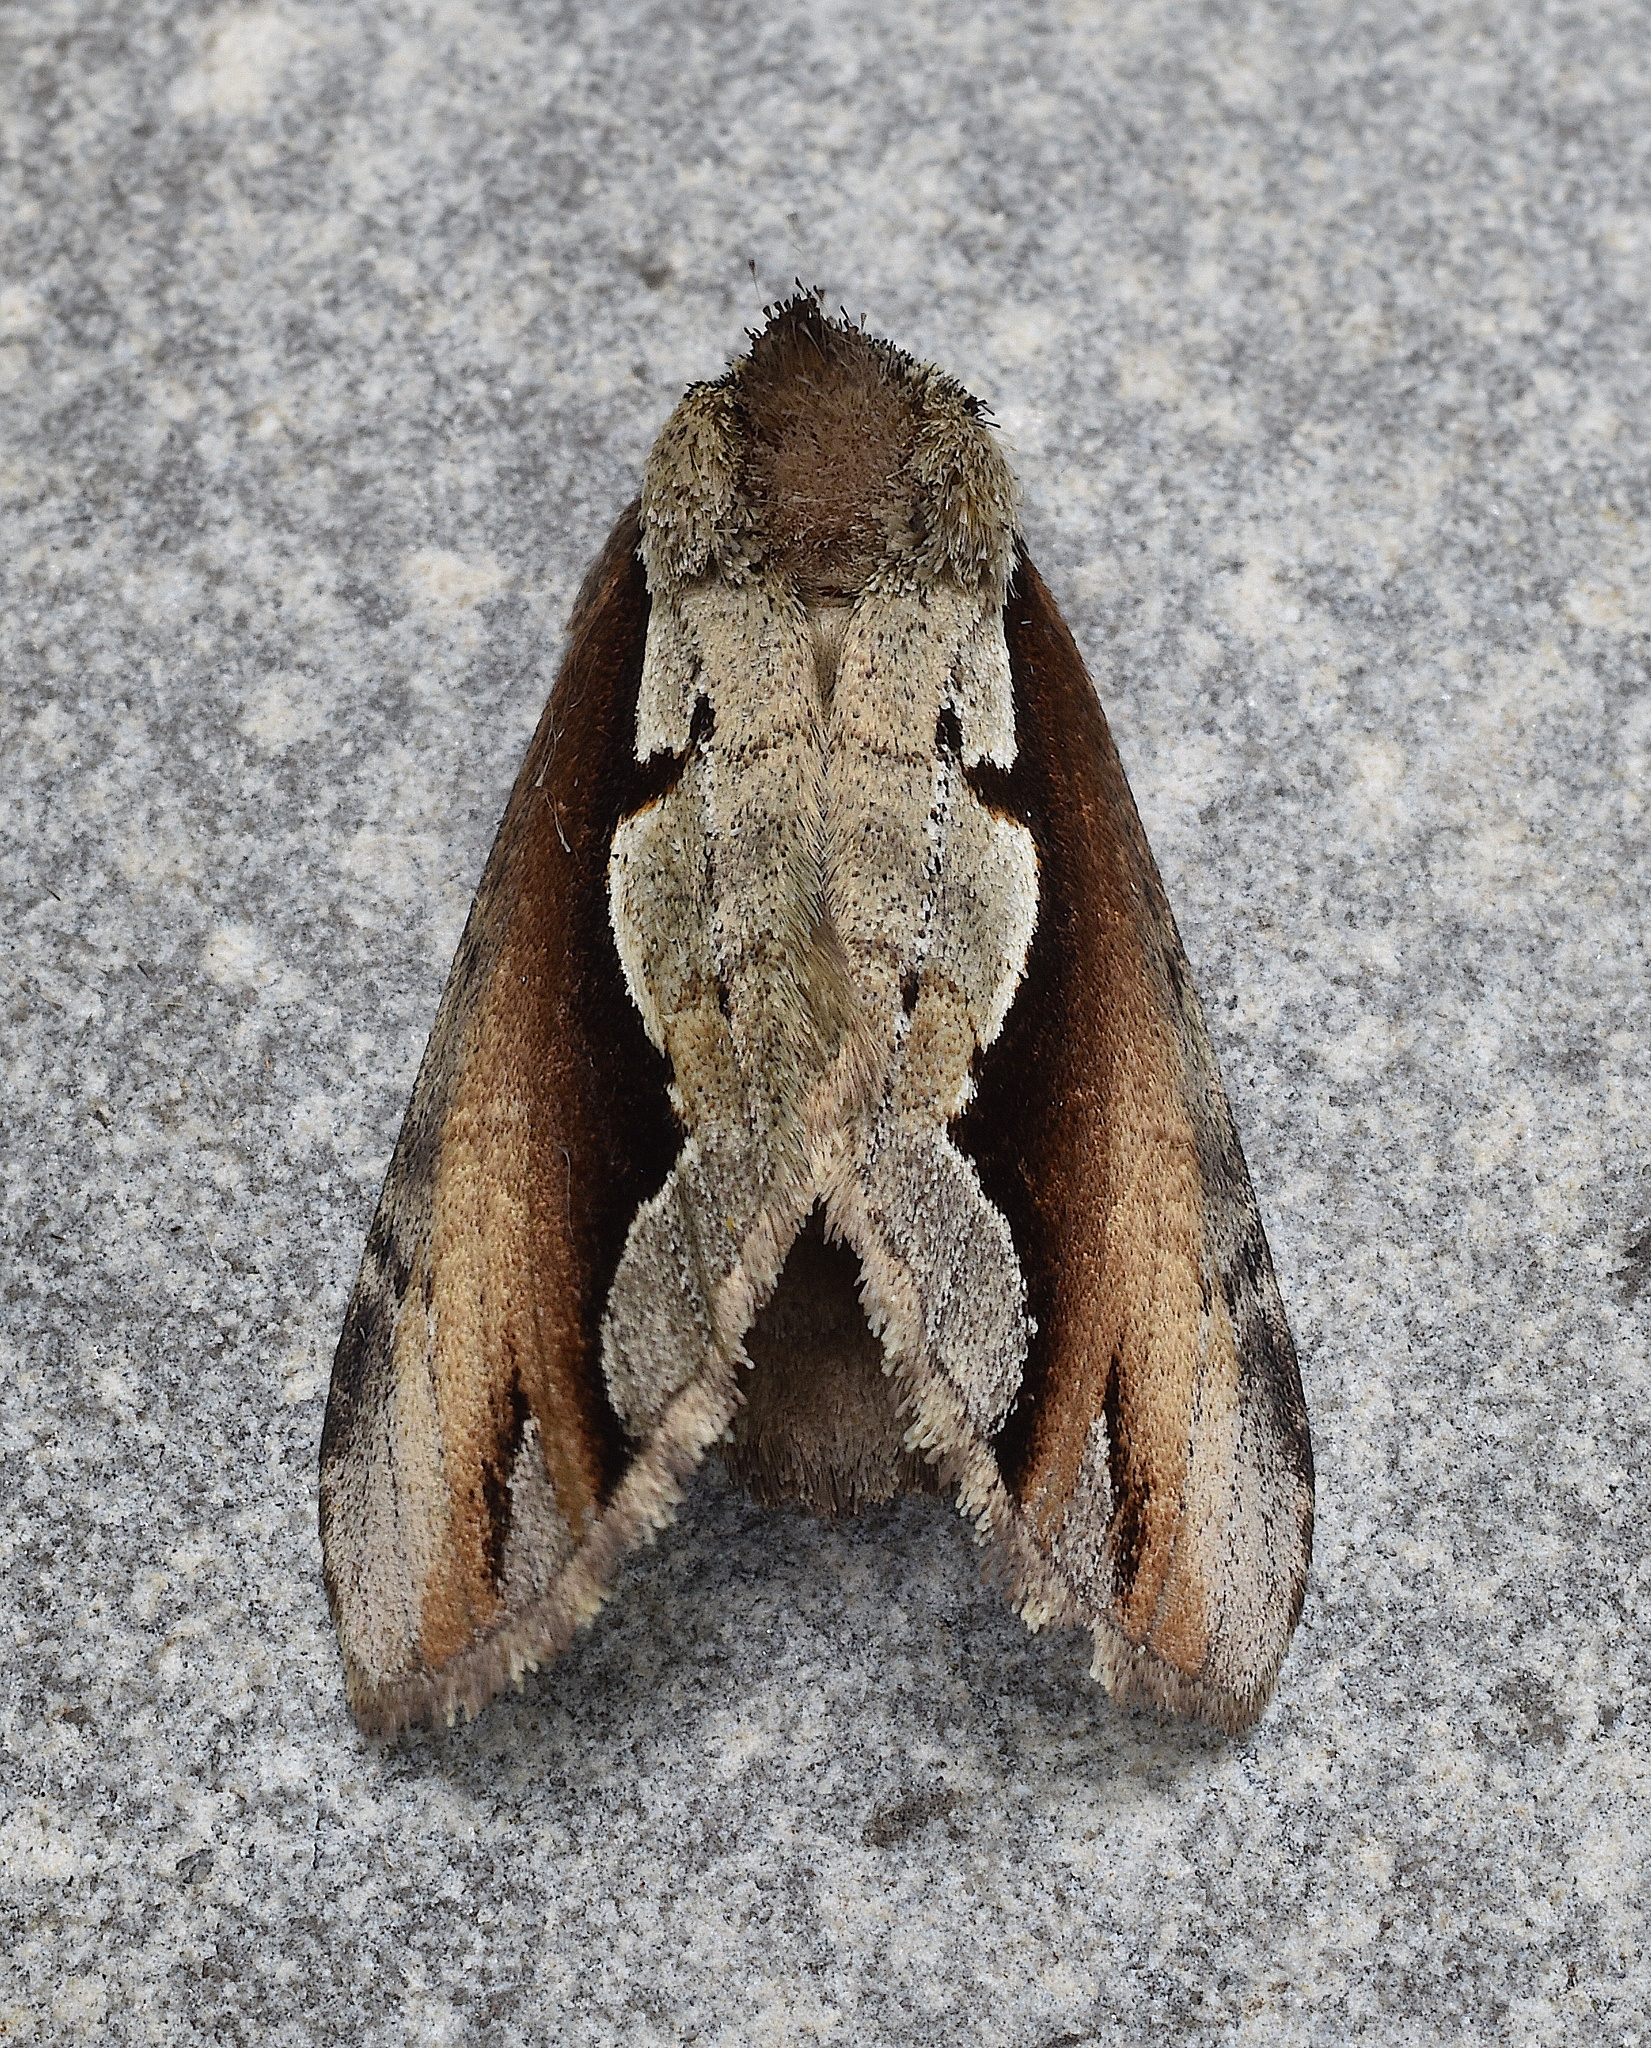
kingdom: Animalia
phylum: Arthropoda
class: Insecta
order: Lepidoptera
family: Notodontidae
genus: Nerice
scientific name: Nerice bidentata
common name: Double-toothed prominent
